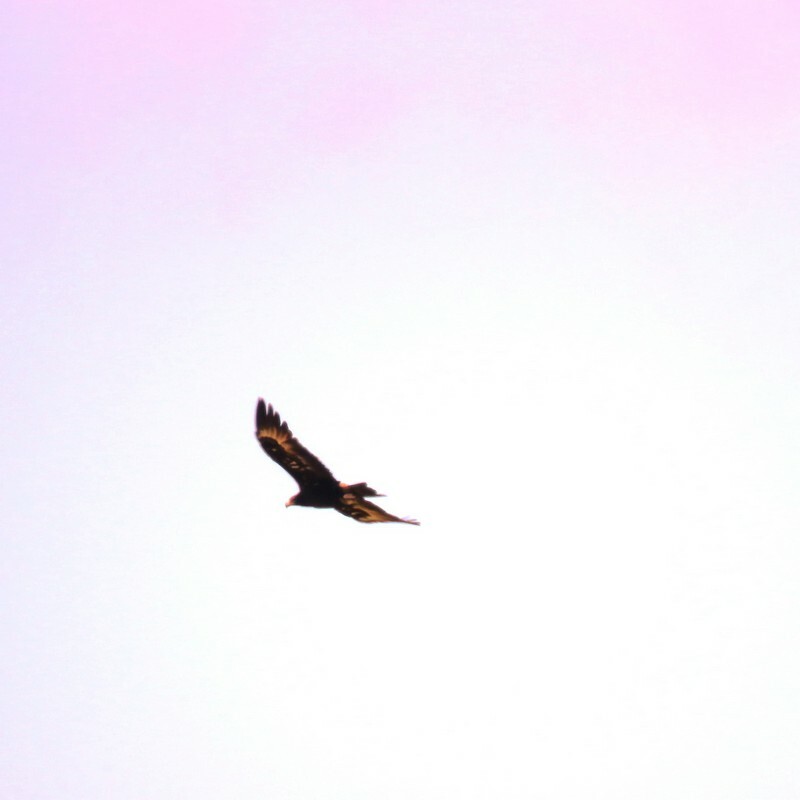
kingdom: Animalia
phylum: Chordata
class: Aves
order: Accipitriformes
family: Accipitridae
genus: Aquila
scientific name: Aquila audax
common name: Wedge-tailed eagle
